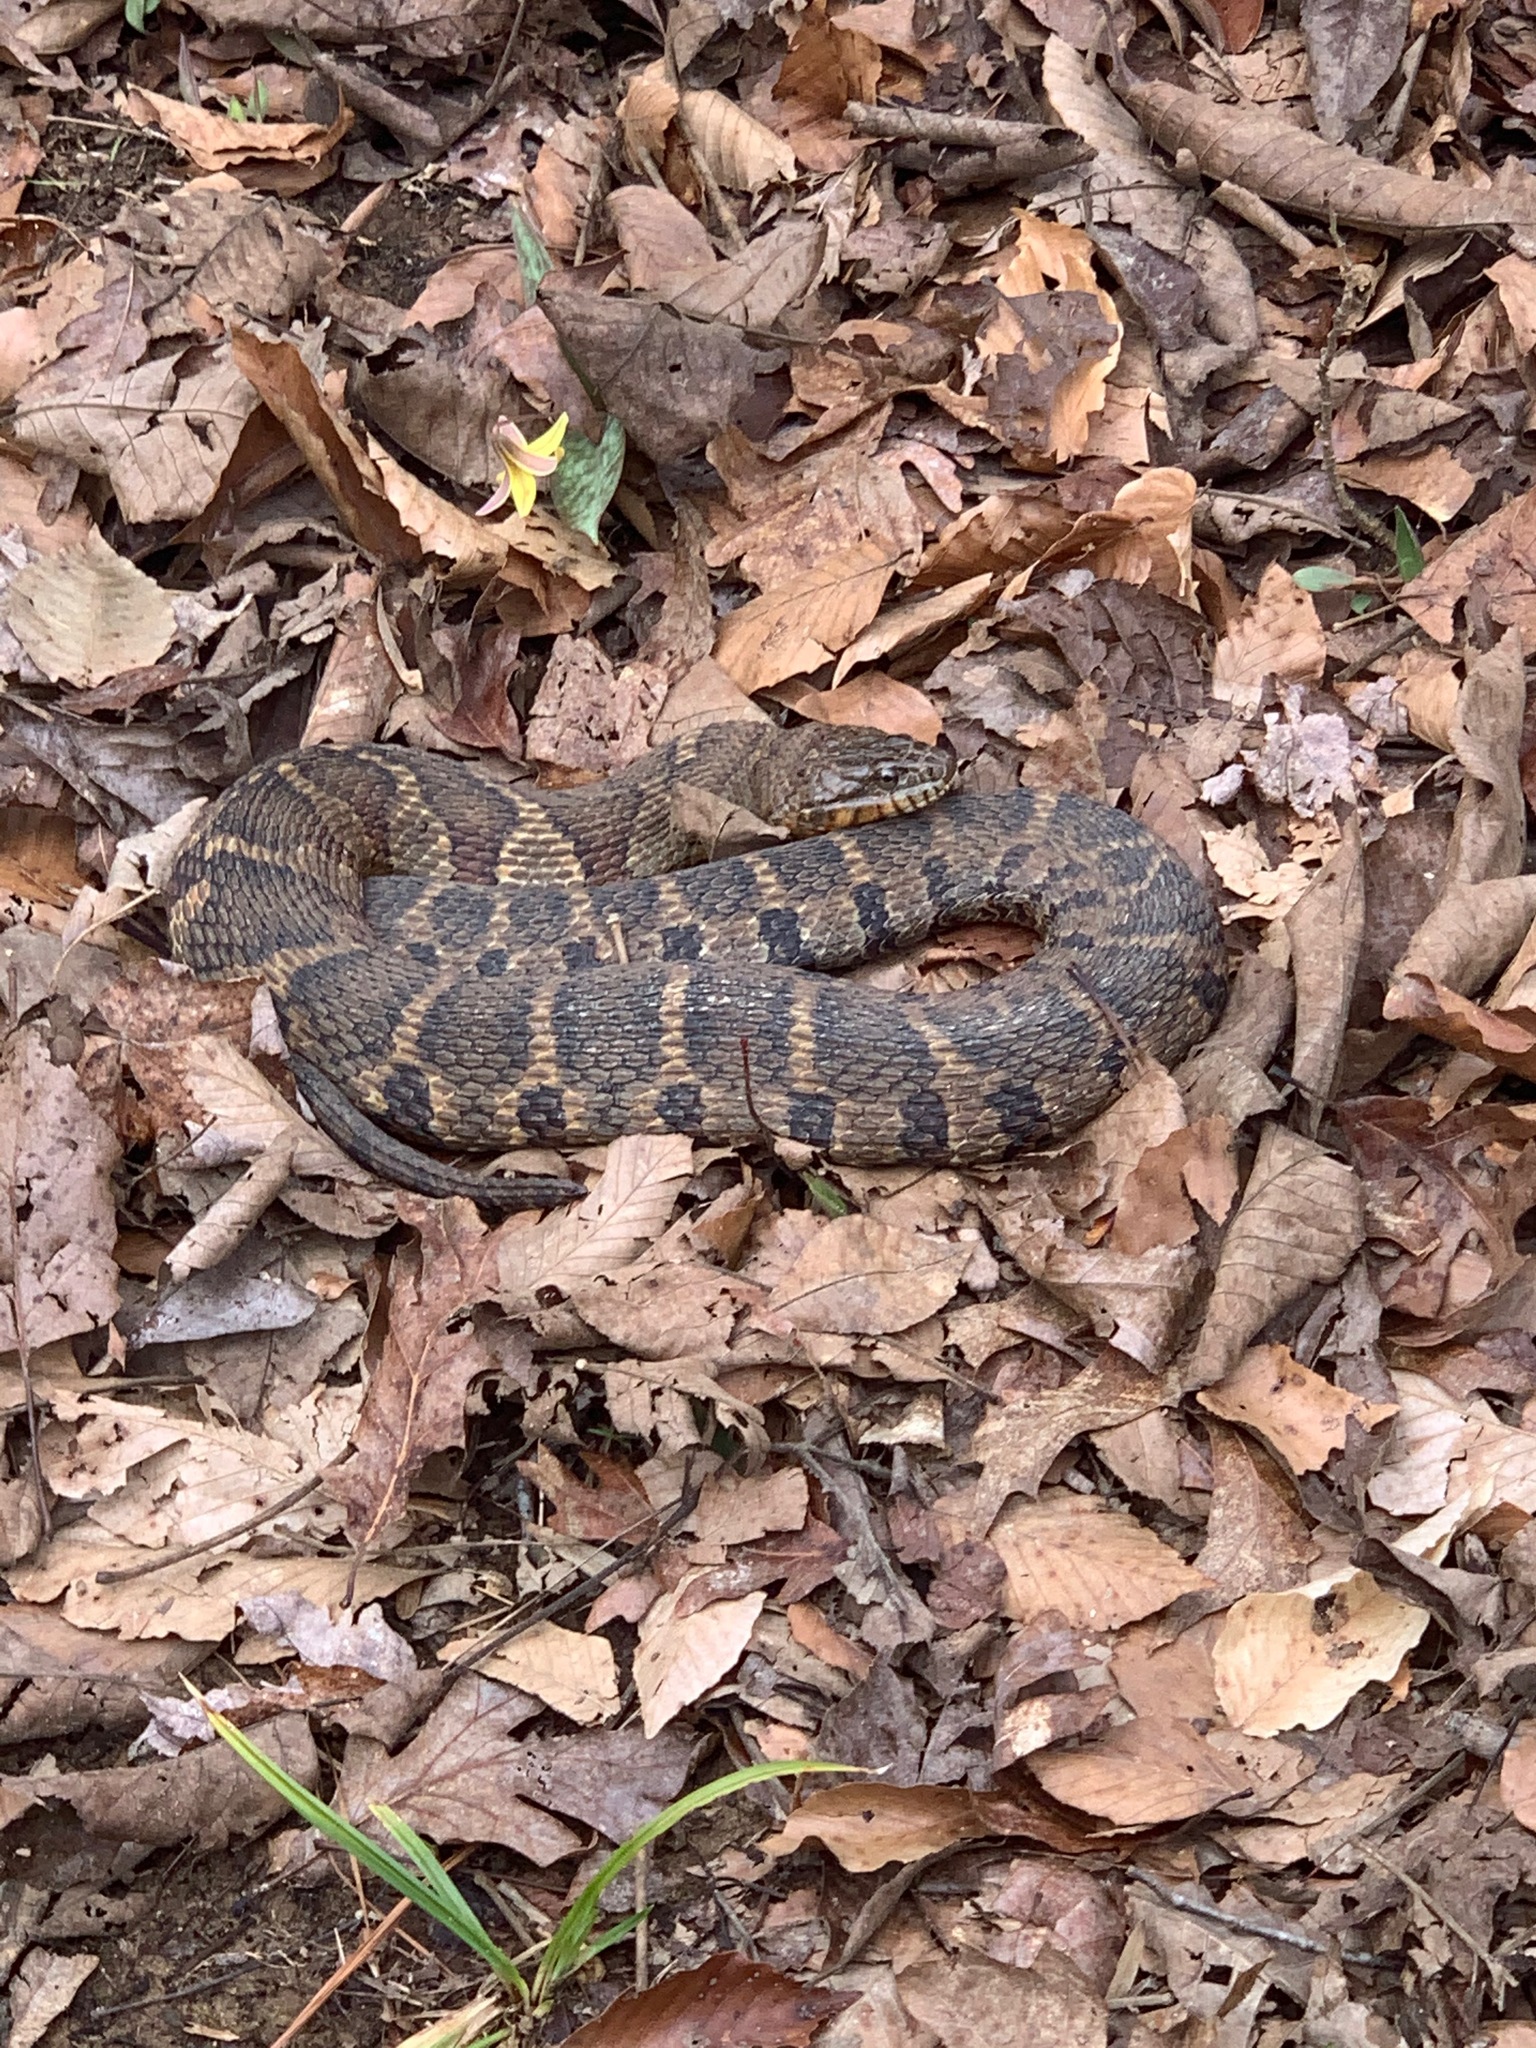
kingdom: Animalia
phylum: Chordata
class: Squamata
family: Colubridae
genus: Nerodia
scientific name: Nerodia sipedon
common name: Northern water snake
